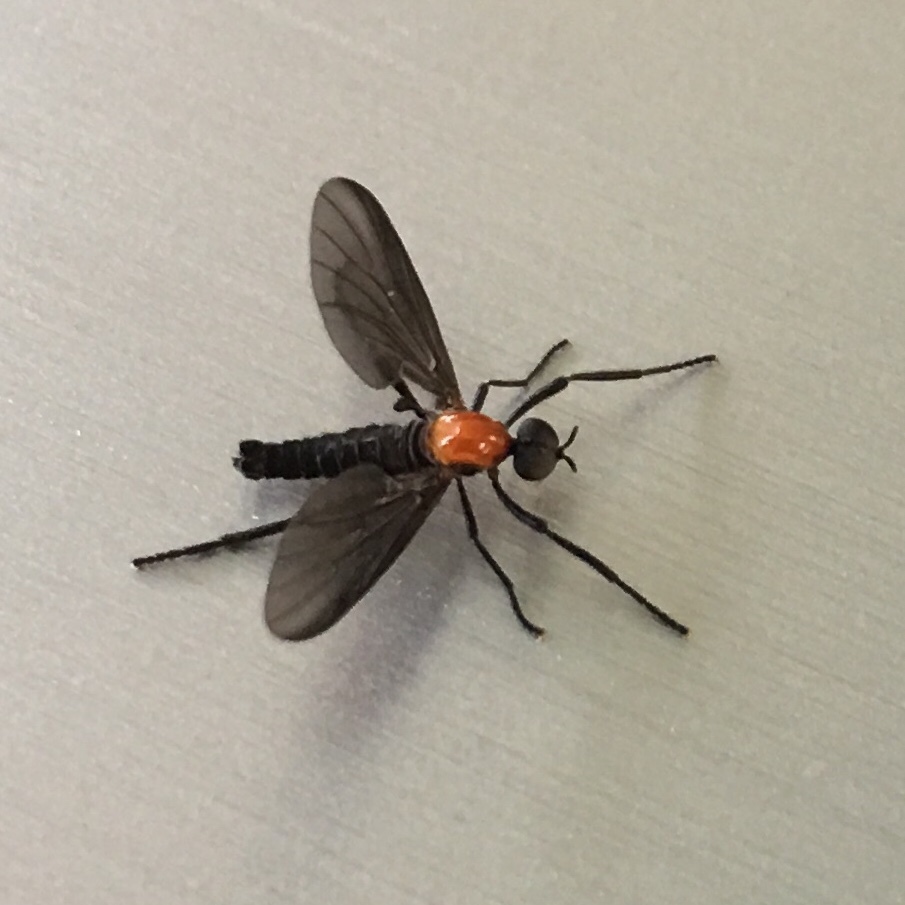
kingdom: Animalia
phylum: Arthropoda
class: Insecta
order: Diptera
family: Bibionidae
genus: Plecia
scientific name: Plecia nearctica
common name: March fly
